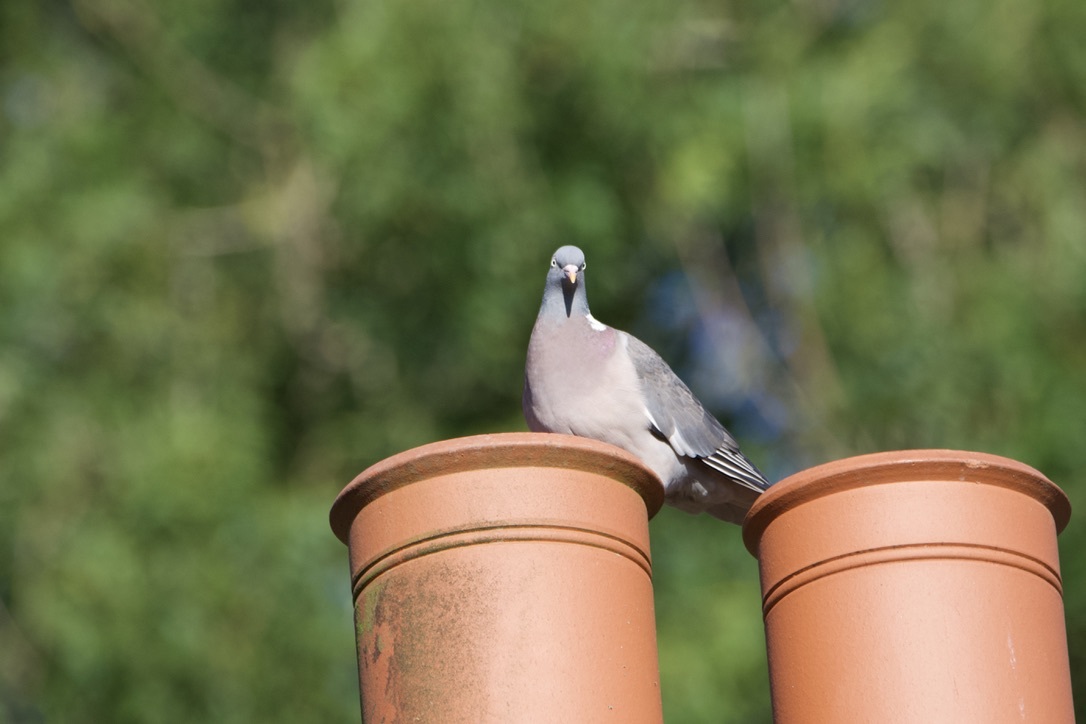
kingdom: Animalia
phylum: Chordata
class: Aves
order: Columbiformes
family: Columbidae
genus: Columba
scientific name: Columba palumbus
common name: Common wood pigeon
